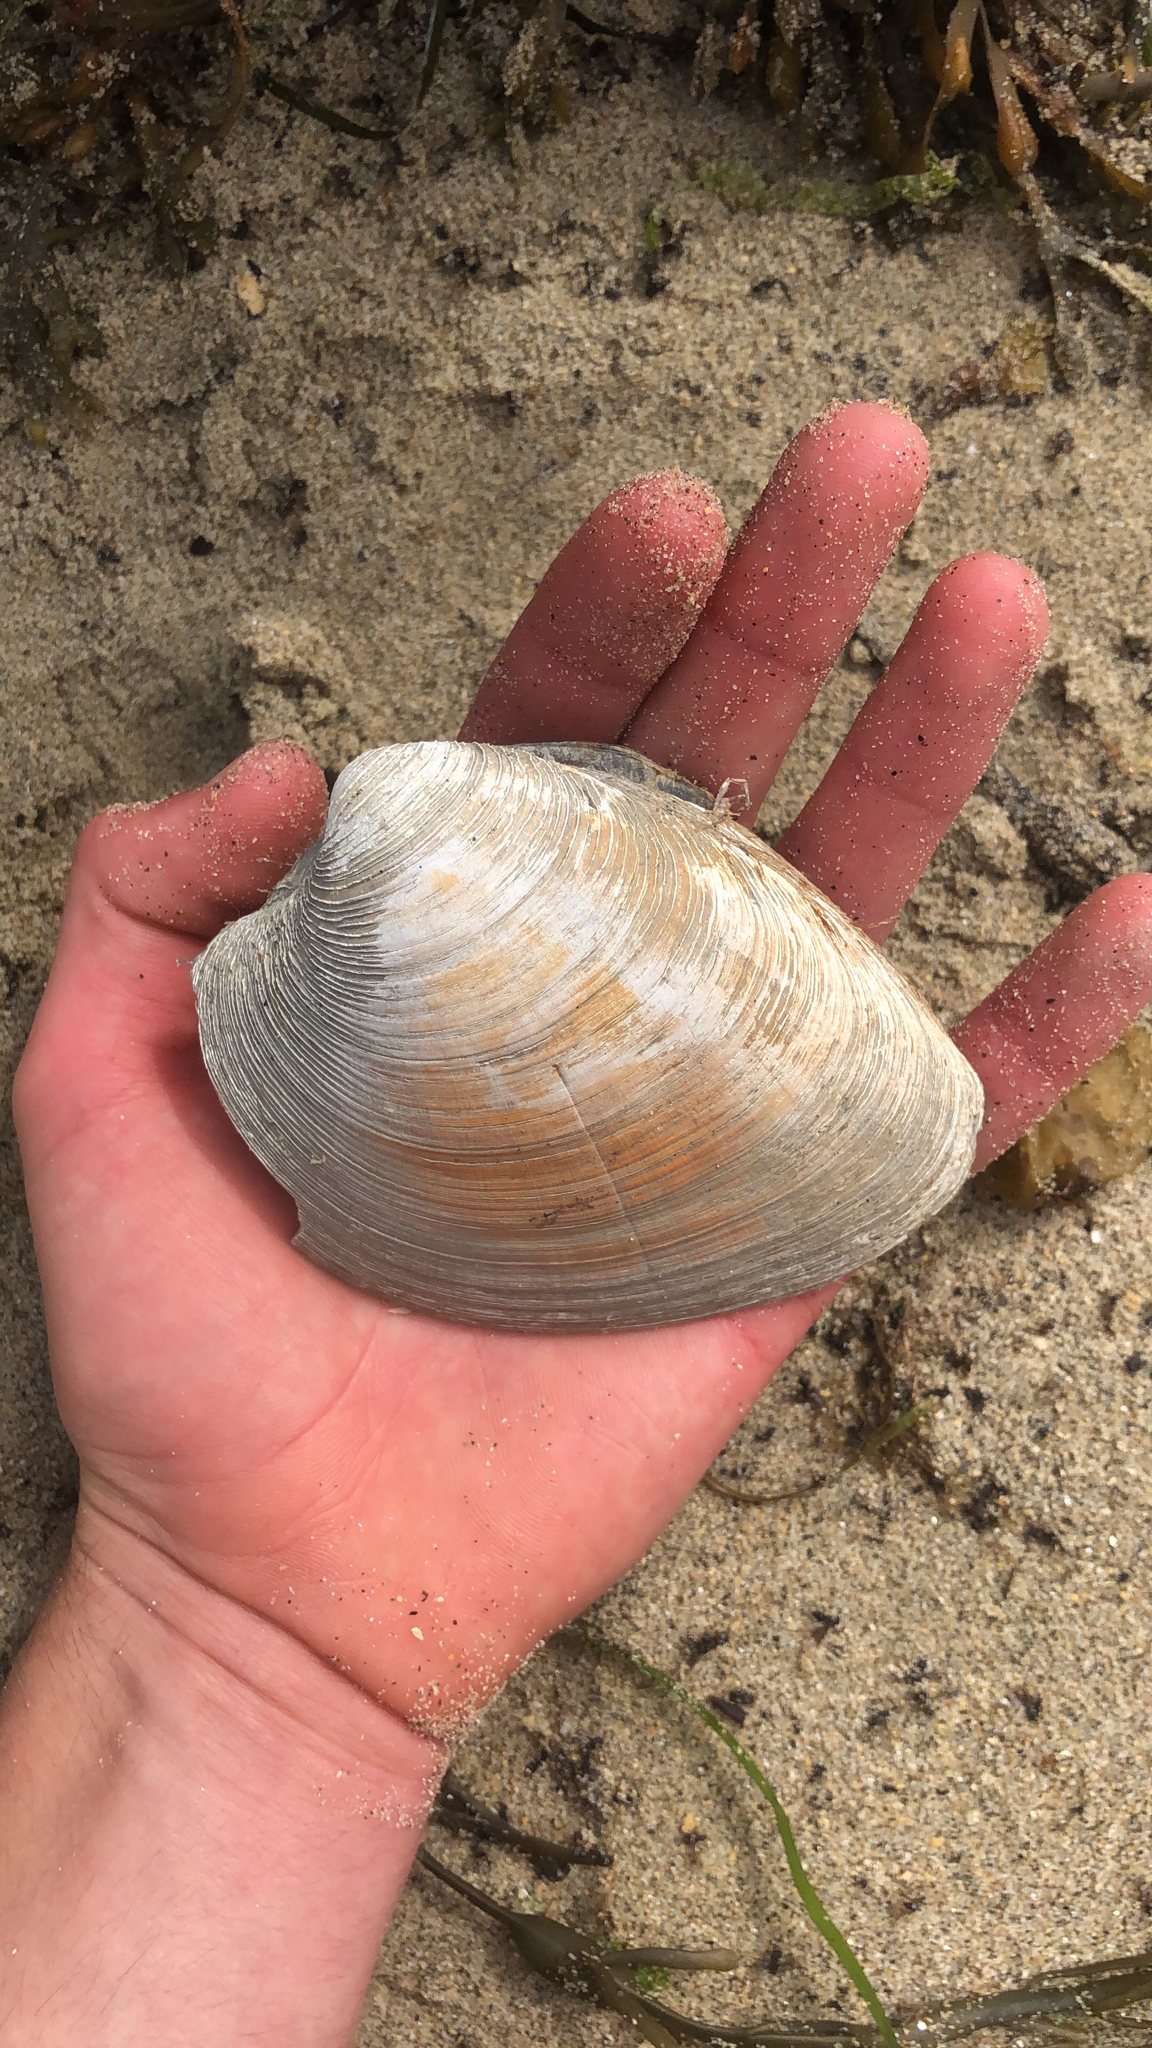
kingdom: Animalia
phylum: Mollusca
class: Bivalvia
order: Venerida
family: Veneridae
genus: Mercenaria
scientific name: Mercenaria mercenaria
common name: American hard-shelled clam
